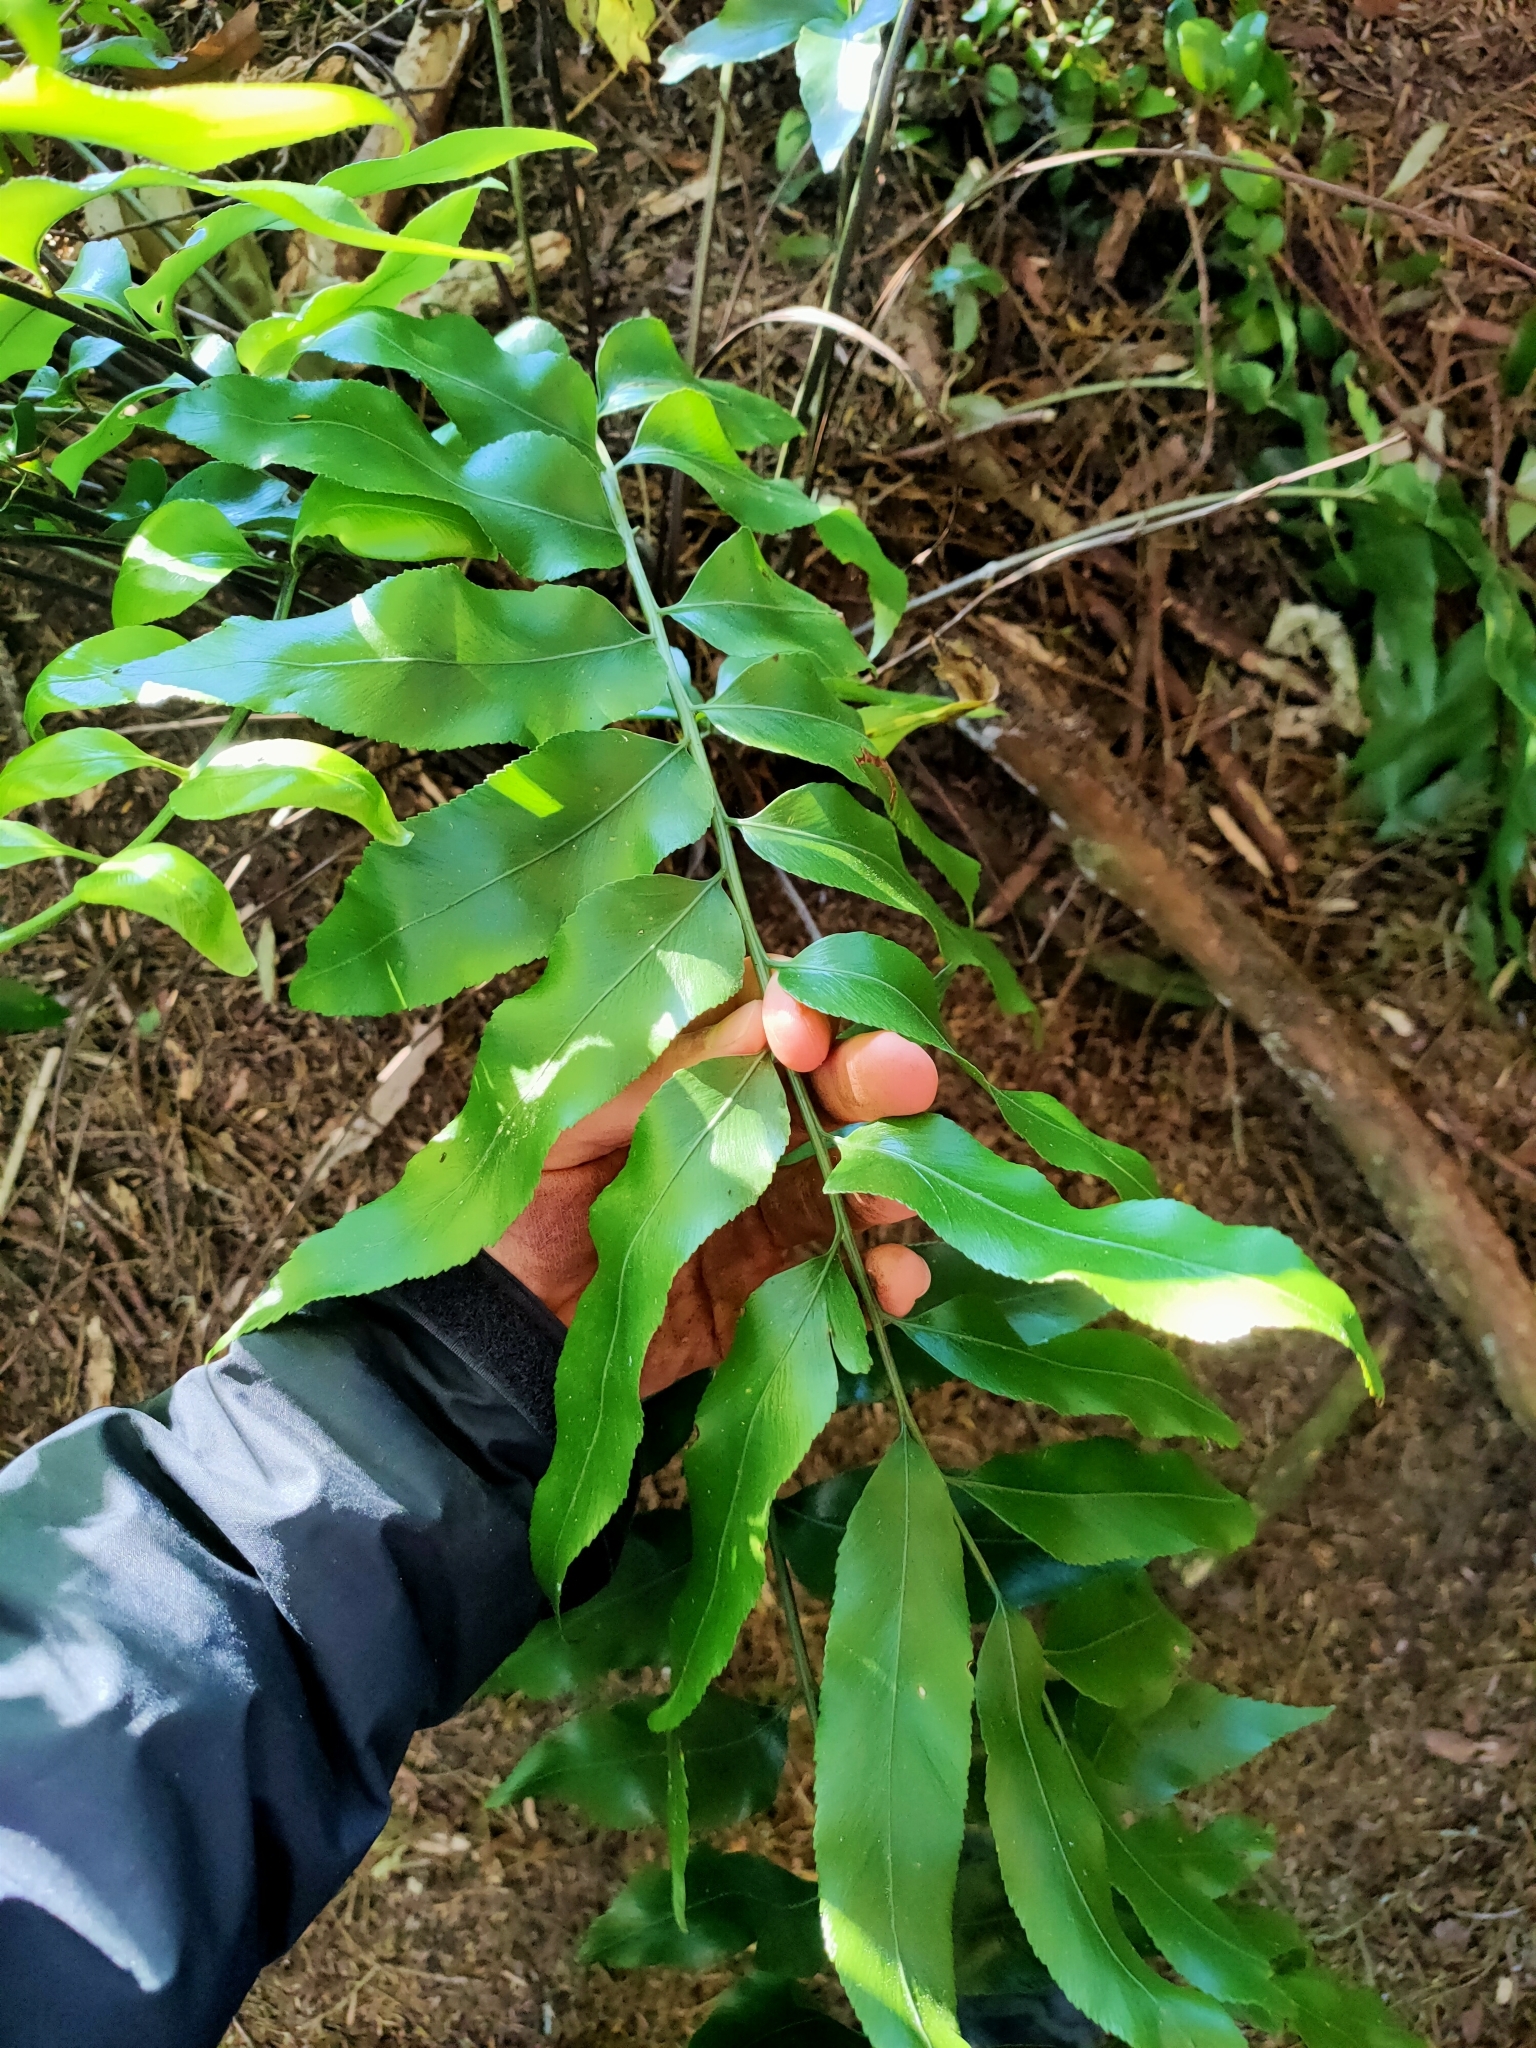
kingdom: Plantae
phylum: Tracheophyta
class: Polypodiopsida
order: Polypodiales
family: Aspleniaceae
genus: Asplenium
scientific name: Asplenium oblongifolium
